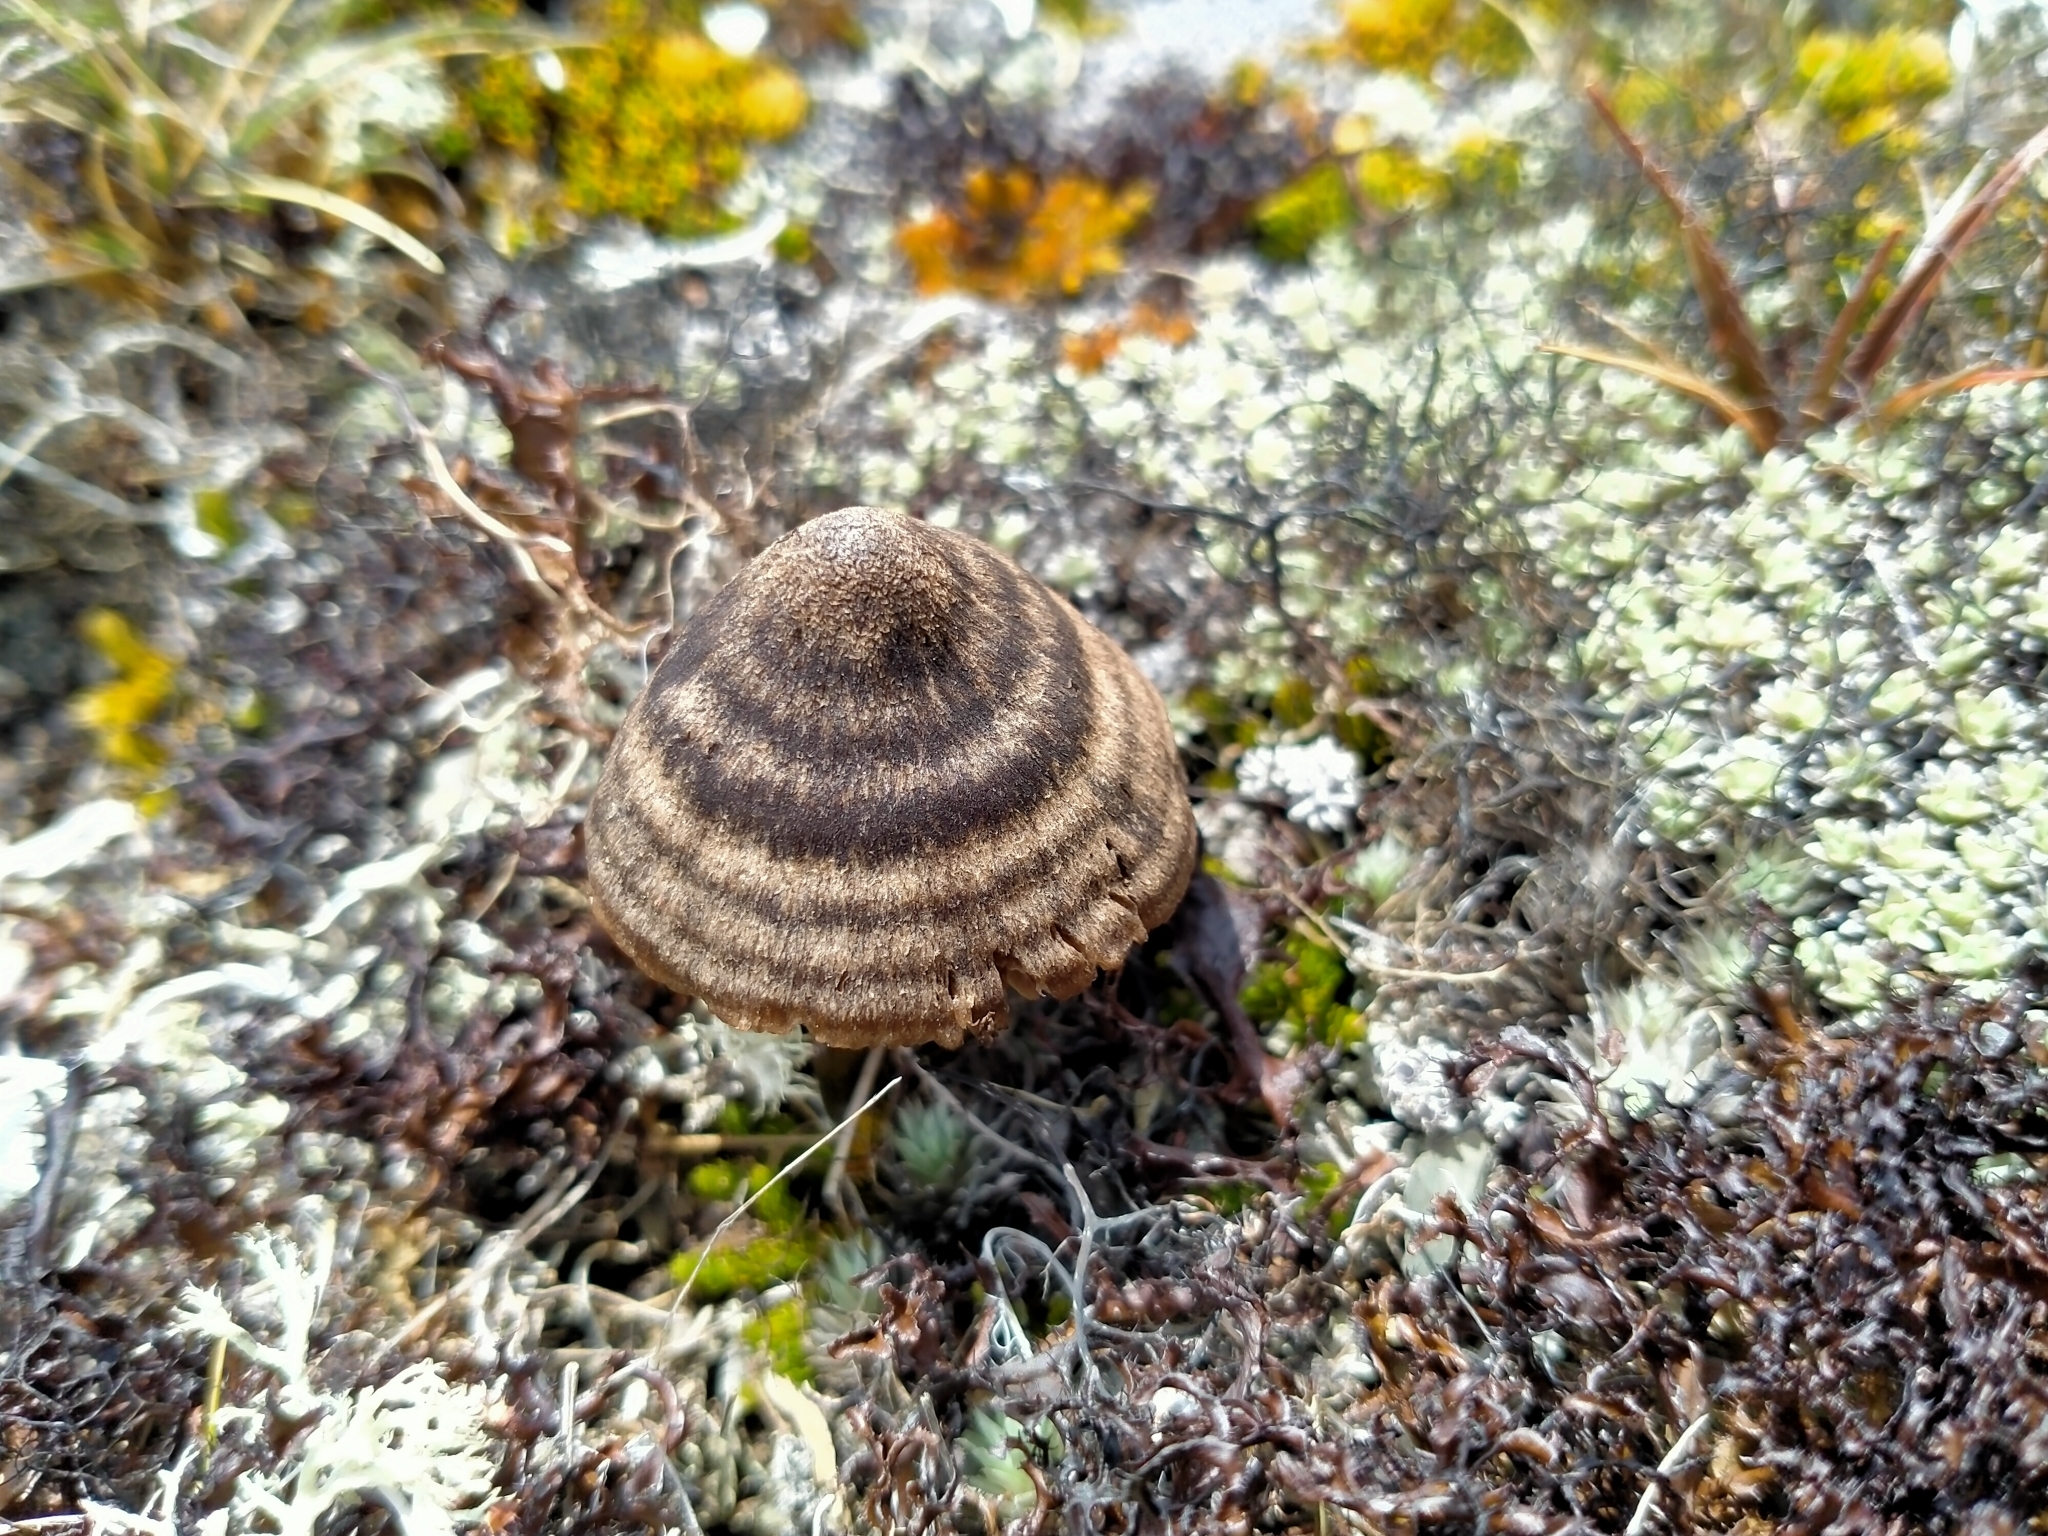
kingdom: Fungi
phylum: Basidiomycota
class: Agaricomycetes
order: Agaricales
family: Entolomataceae
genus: Entoloma
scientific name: Entoloma perzonatum
